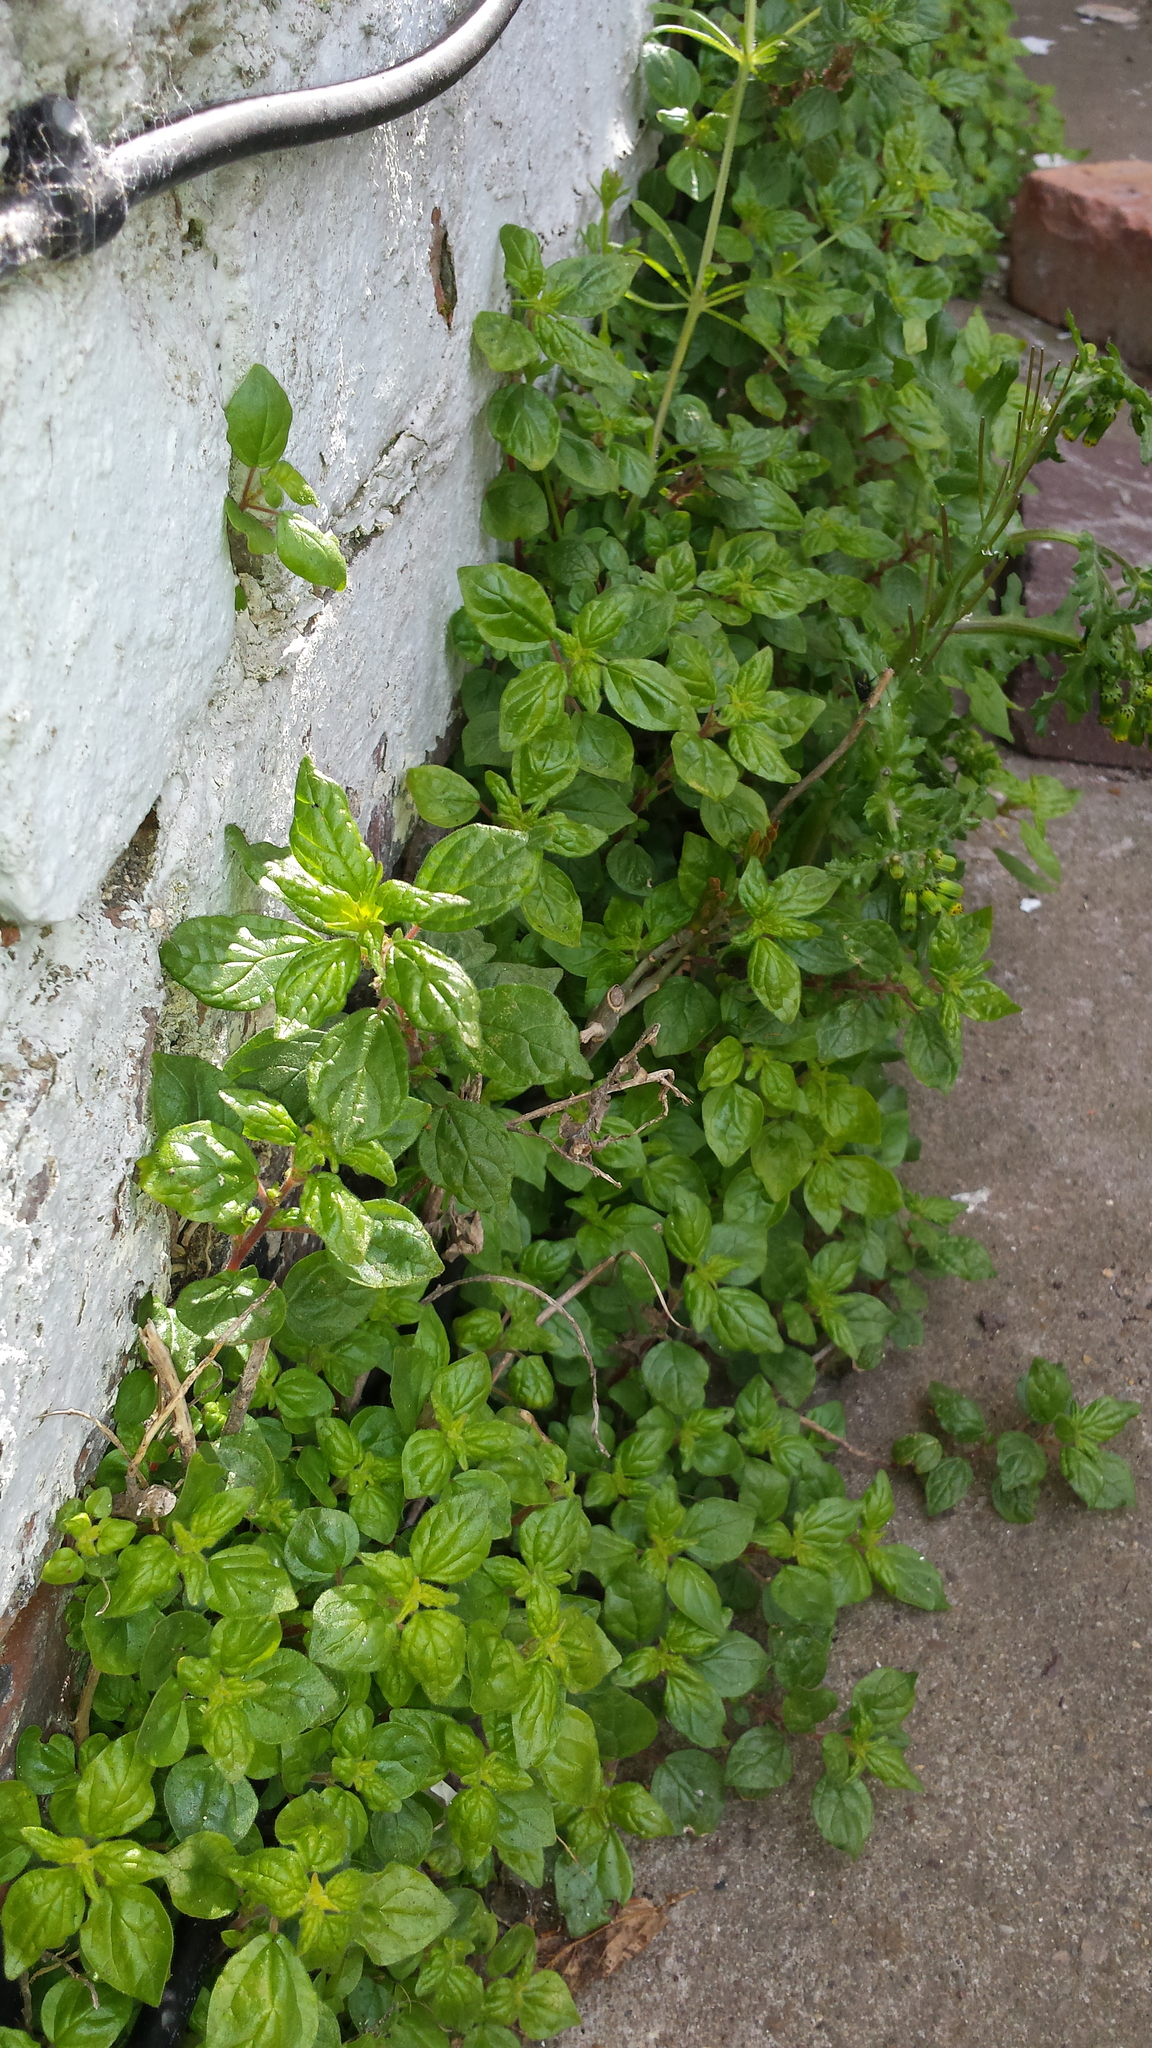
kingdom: Plantae
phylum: Tracheophyta
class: Magnoliopsida
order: Rosales
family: Urticaceae
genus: Parietaria
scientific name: Parietaria judaica
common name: Pellitory-of-the-wall
